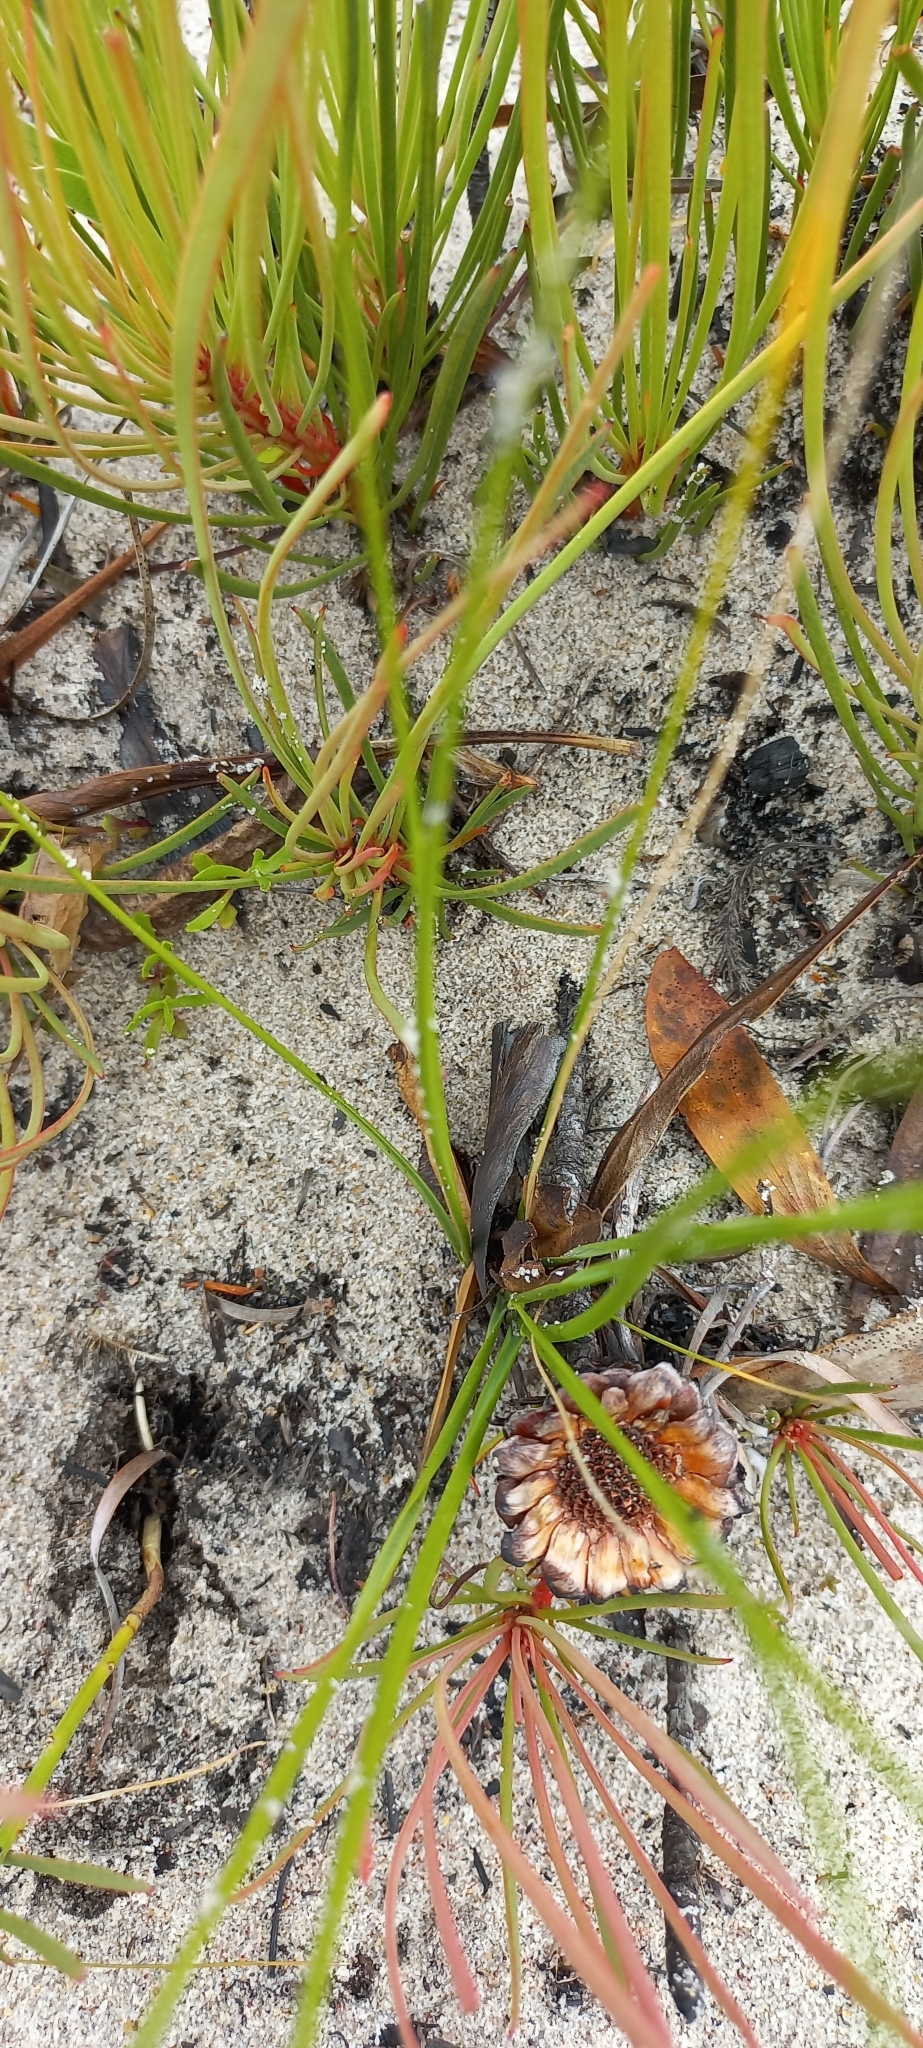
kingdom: Plantae
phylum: Tracheophyta
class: Magnoliopsida
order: Proteales
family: Proteaceae
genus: Protea
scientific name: Protea angustata
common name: Kleinmond sugarbush
